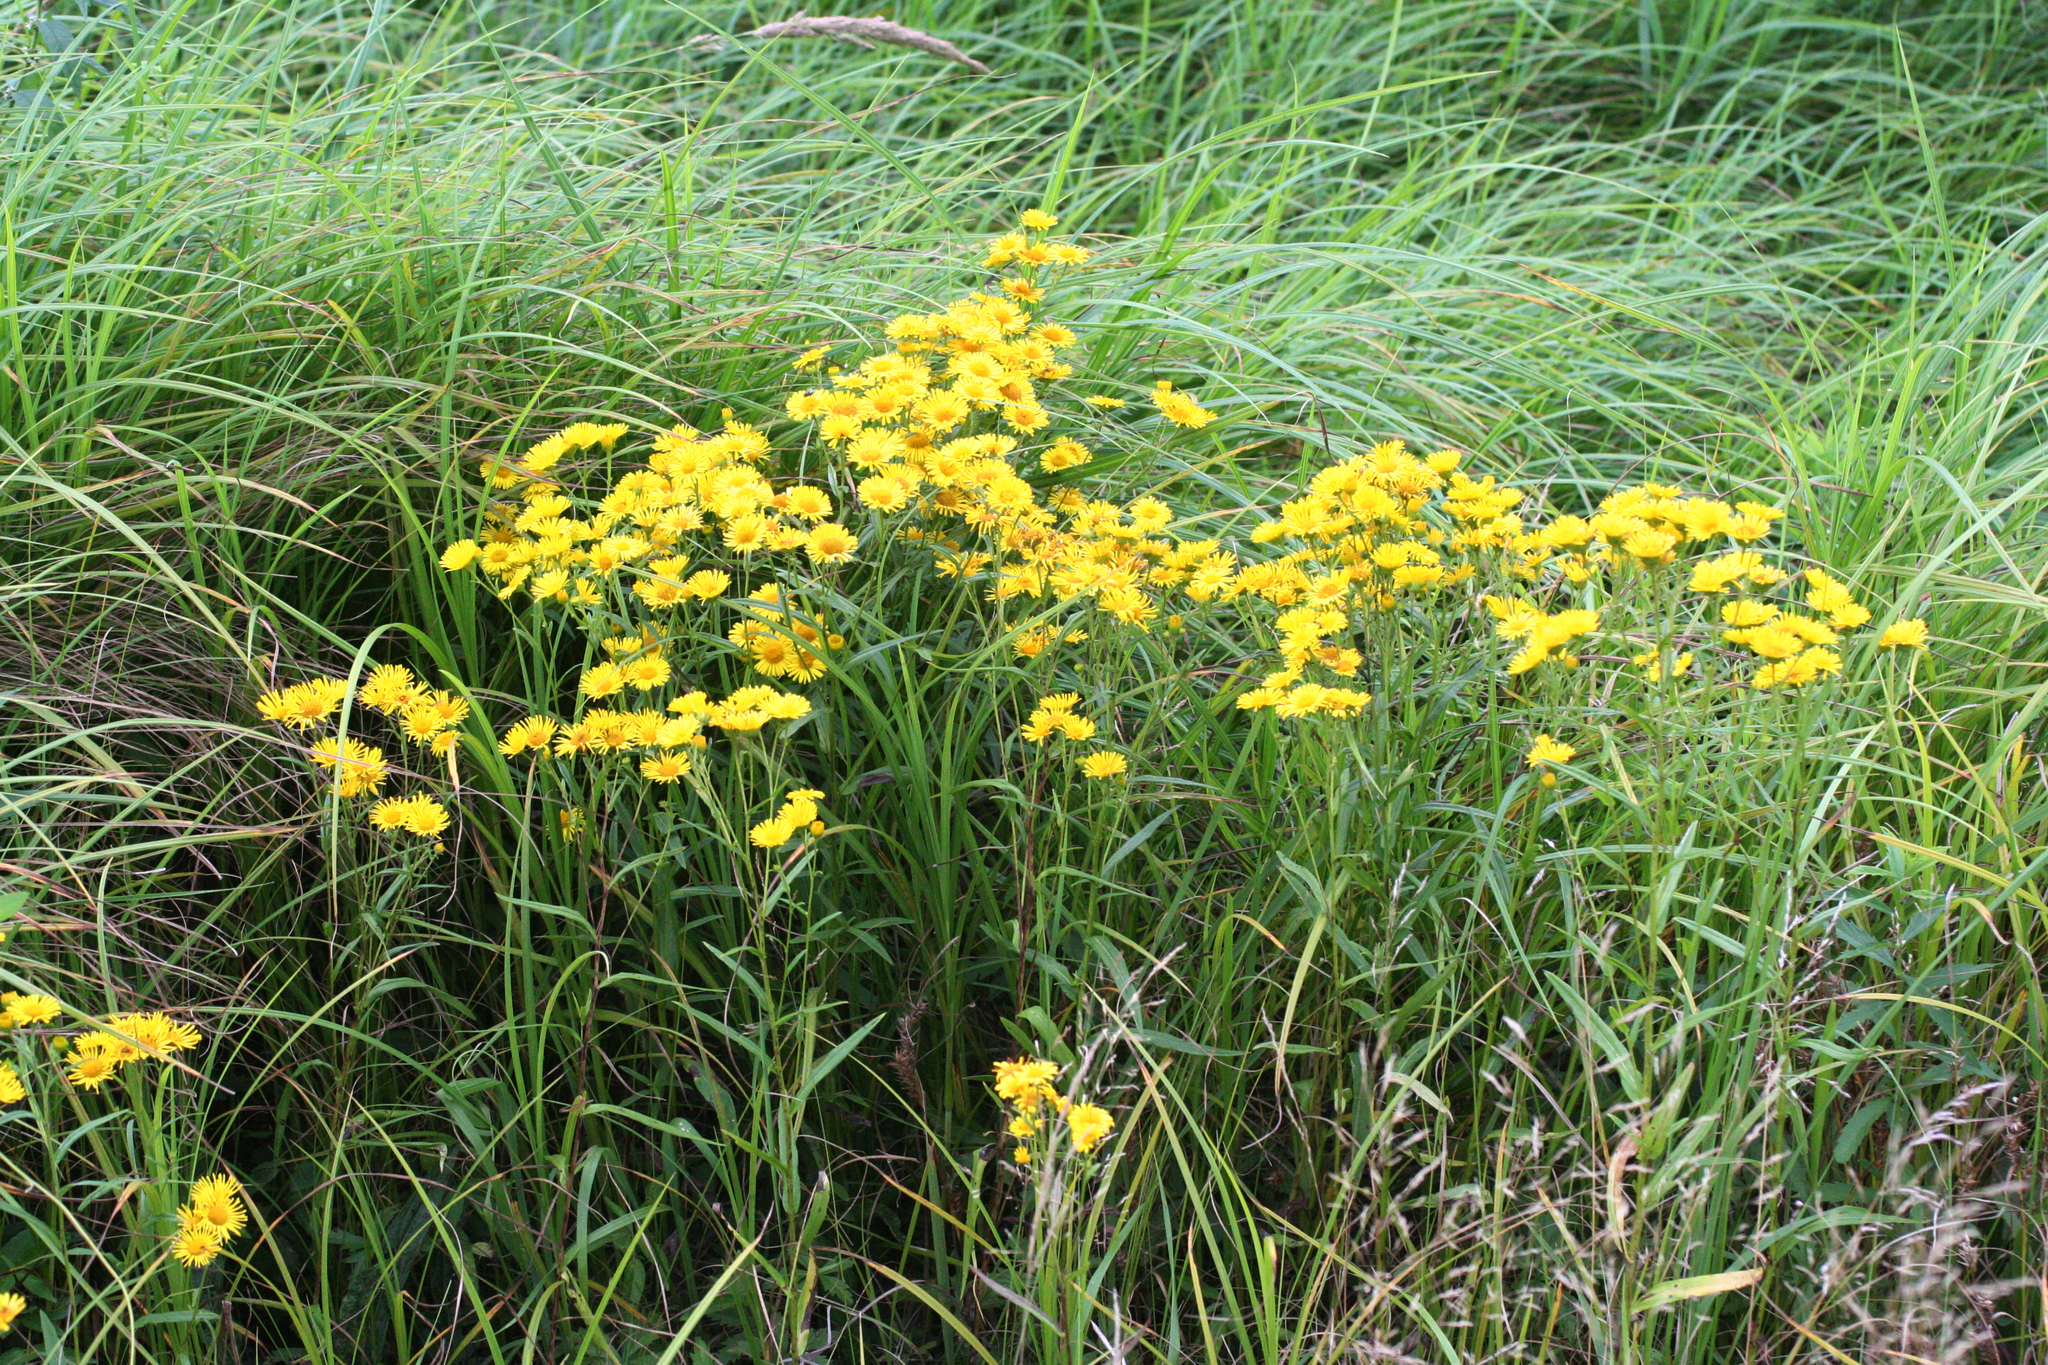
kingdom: Plantae
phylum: Tracheophyta
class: Magnoliopsida
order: Asterales
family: Asteraceae
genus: Inula
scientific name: Inula linariifolia
